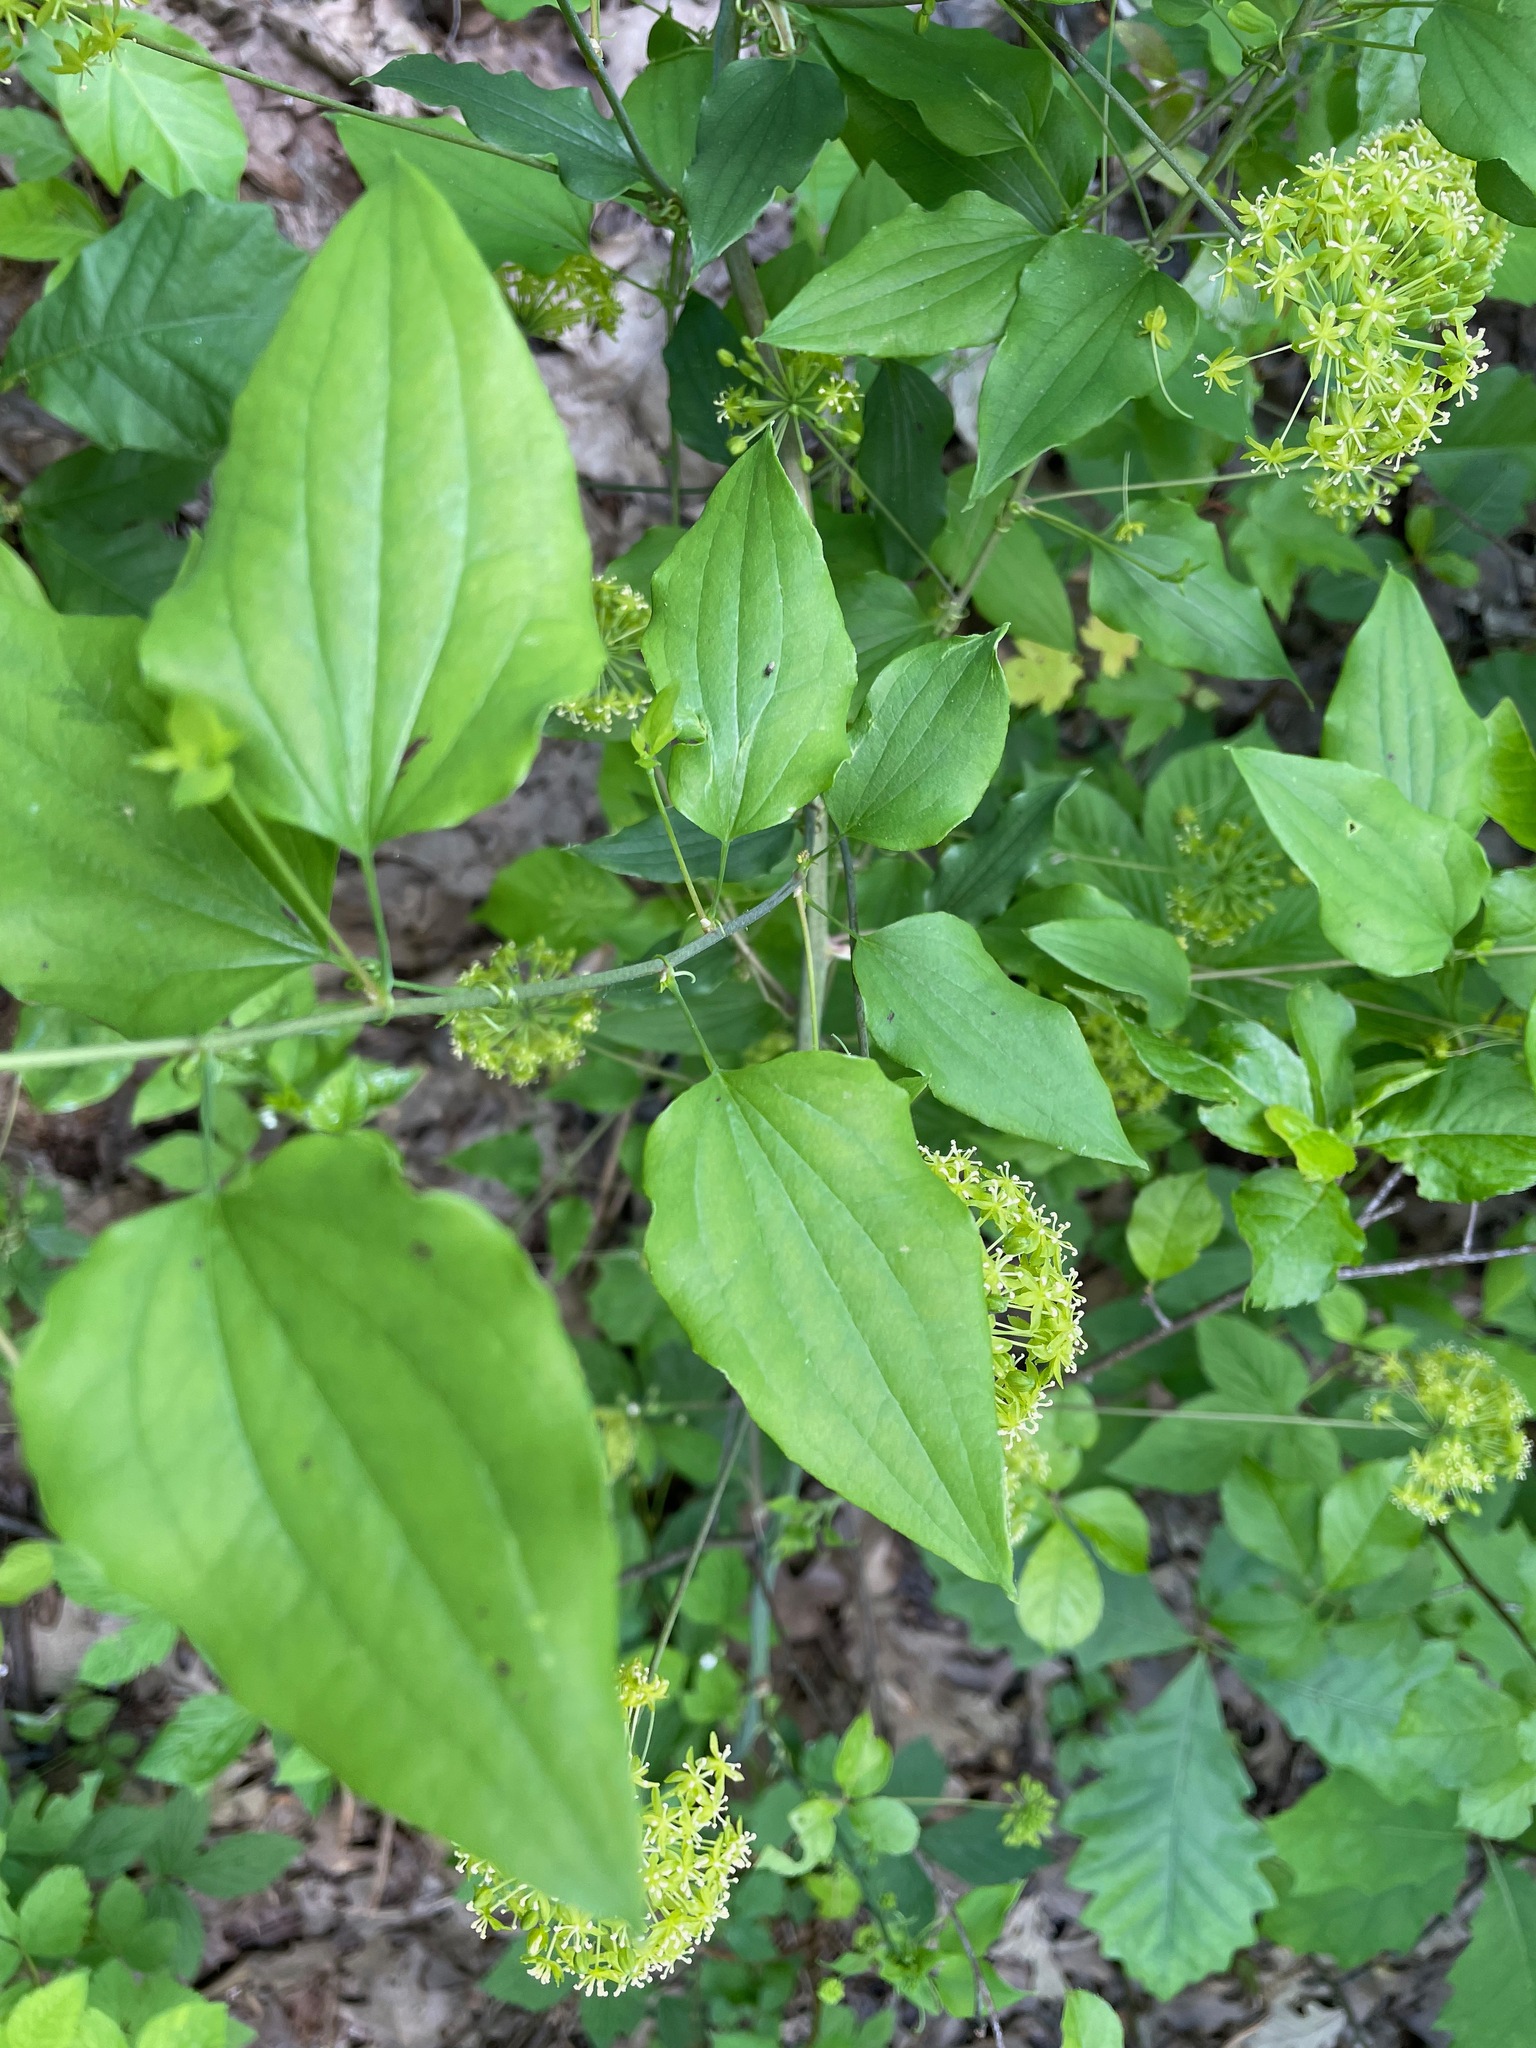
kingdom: Plantae
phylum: Tracheophyta
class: Liliopsida
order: Liliales
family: Smilacaceae
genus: Smilax
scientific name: Smilax herbacea
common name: Jacob's-ladder
